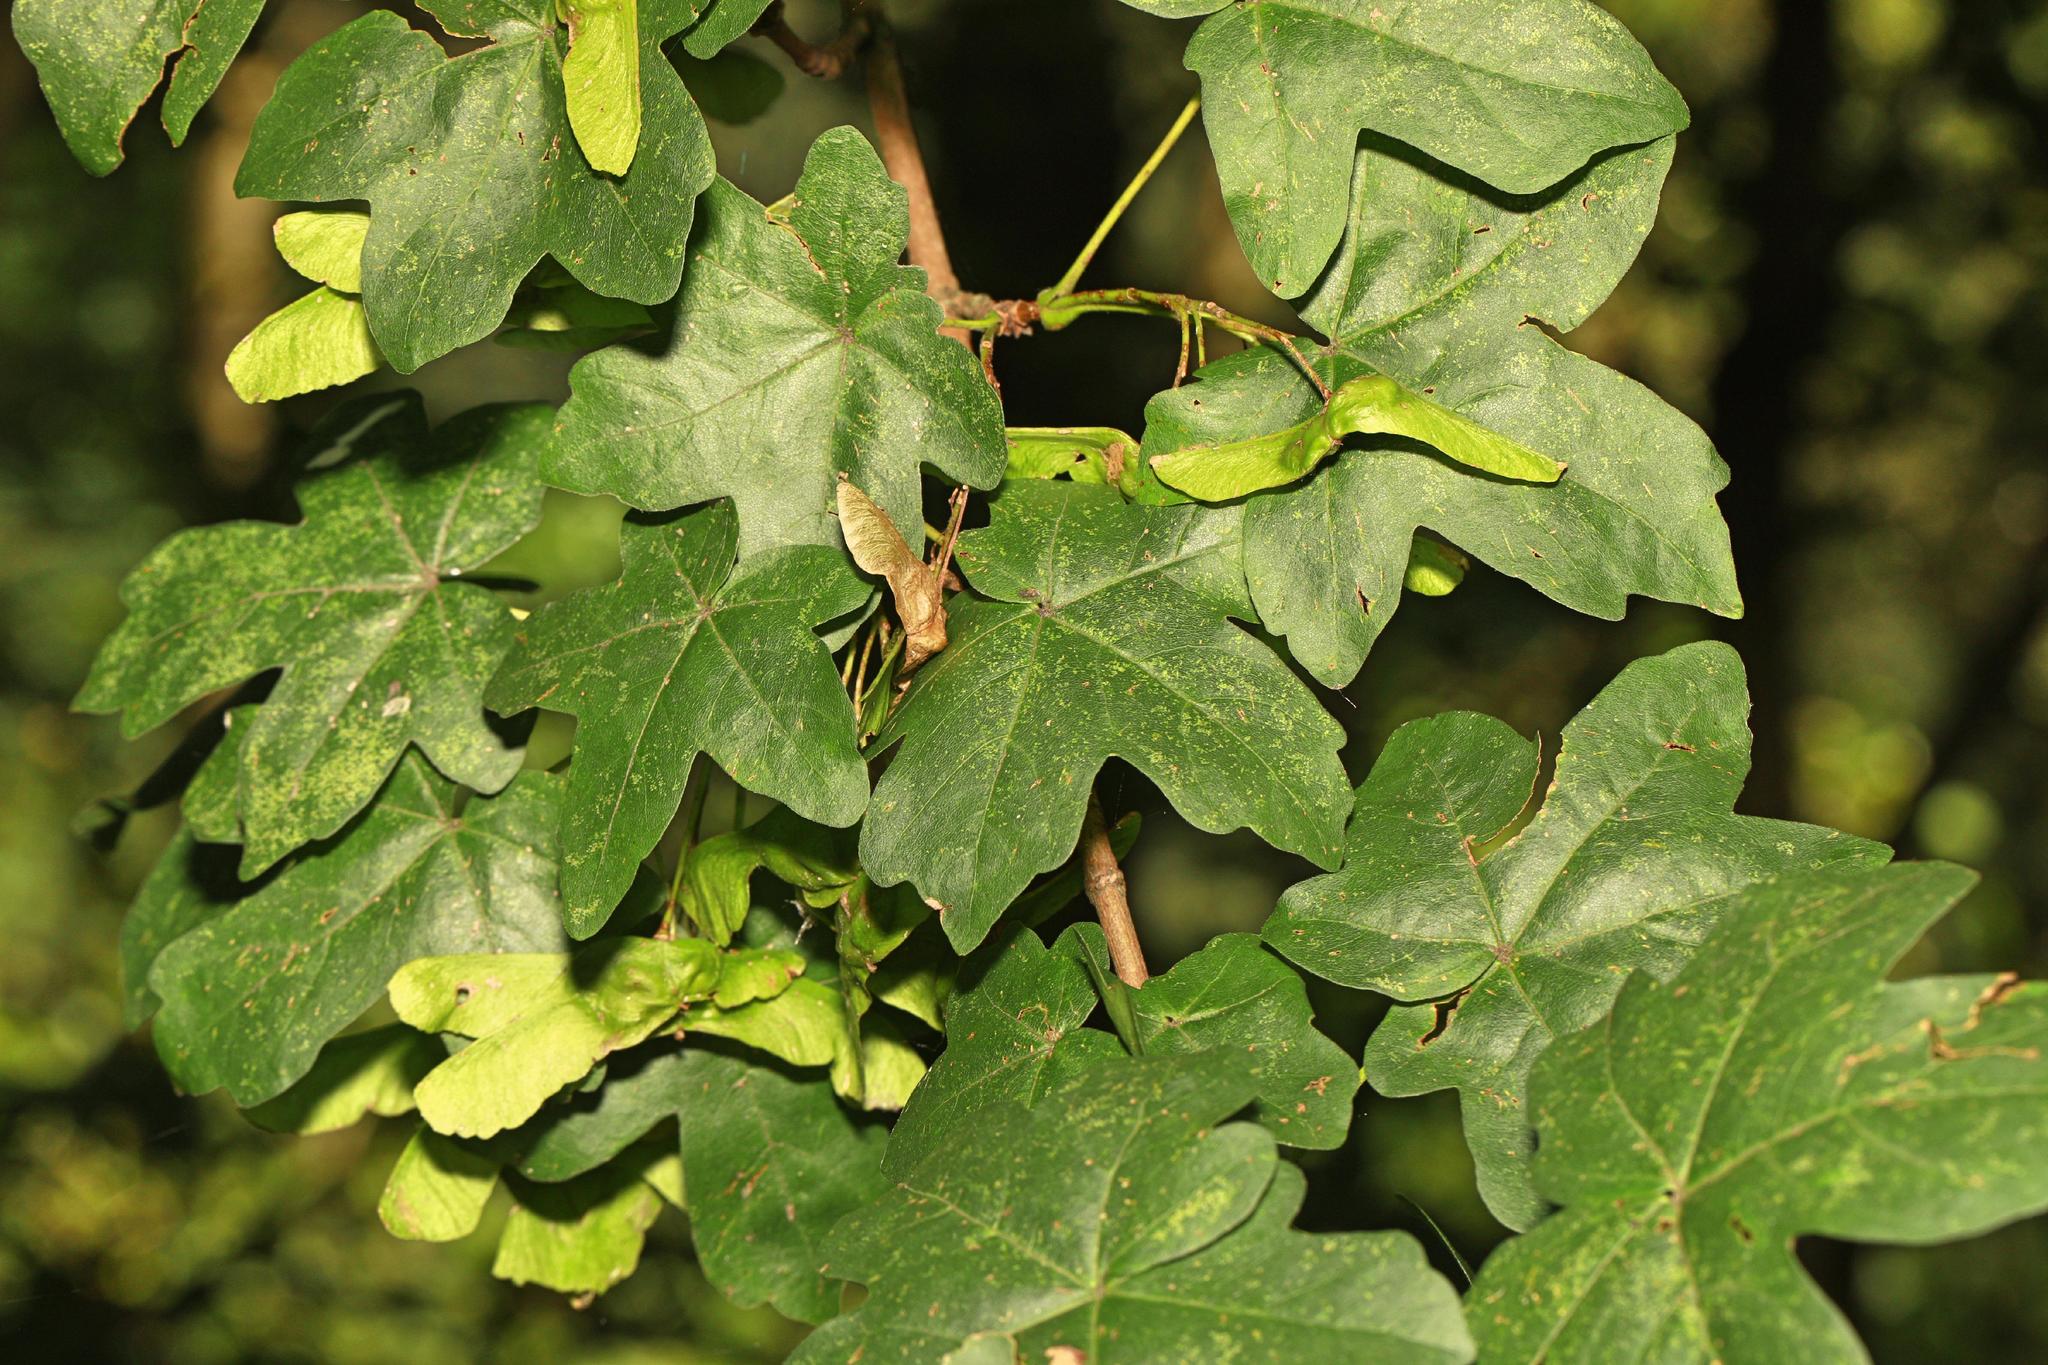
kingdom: Plantae
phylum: Tracheophyta
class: Magnoliopsida
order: Sapindales
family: Sapindaceae
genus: Acer
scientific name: Acer campestre
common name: Field maple
